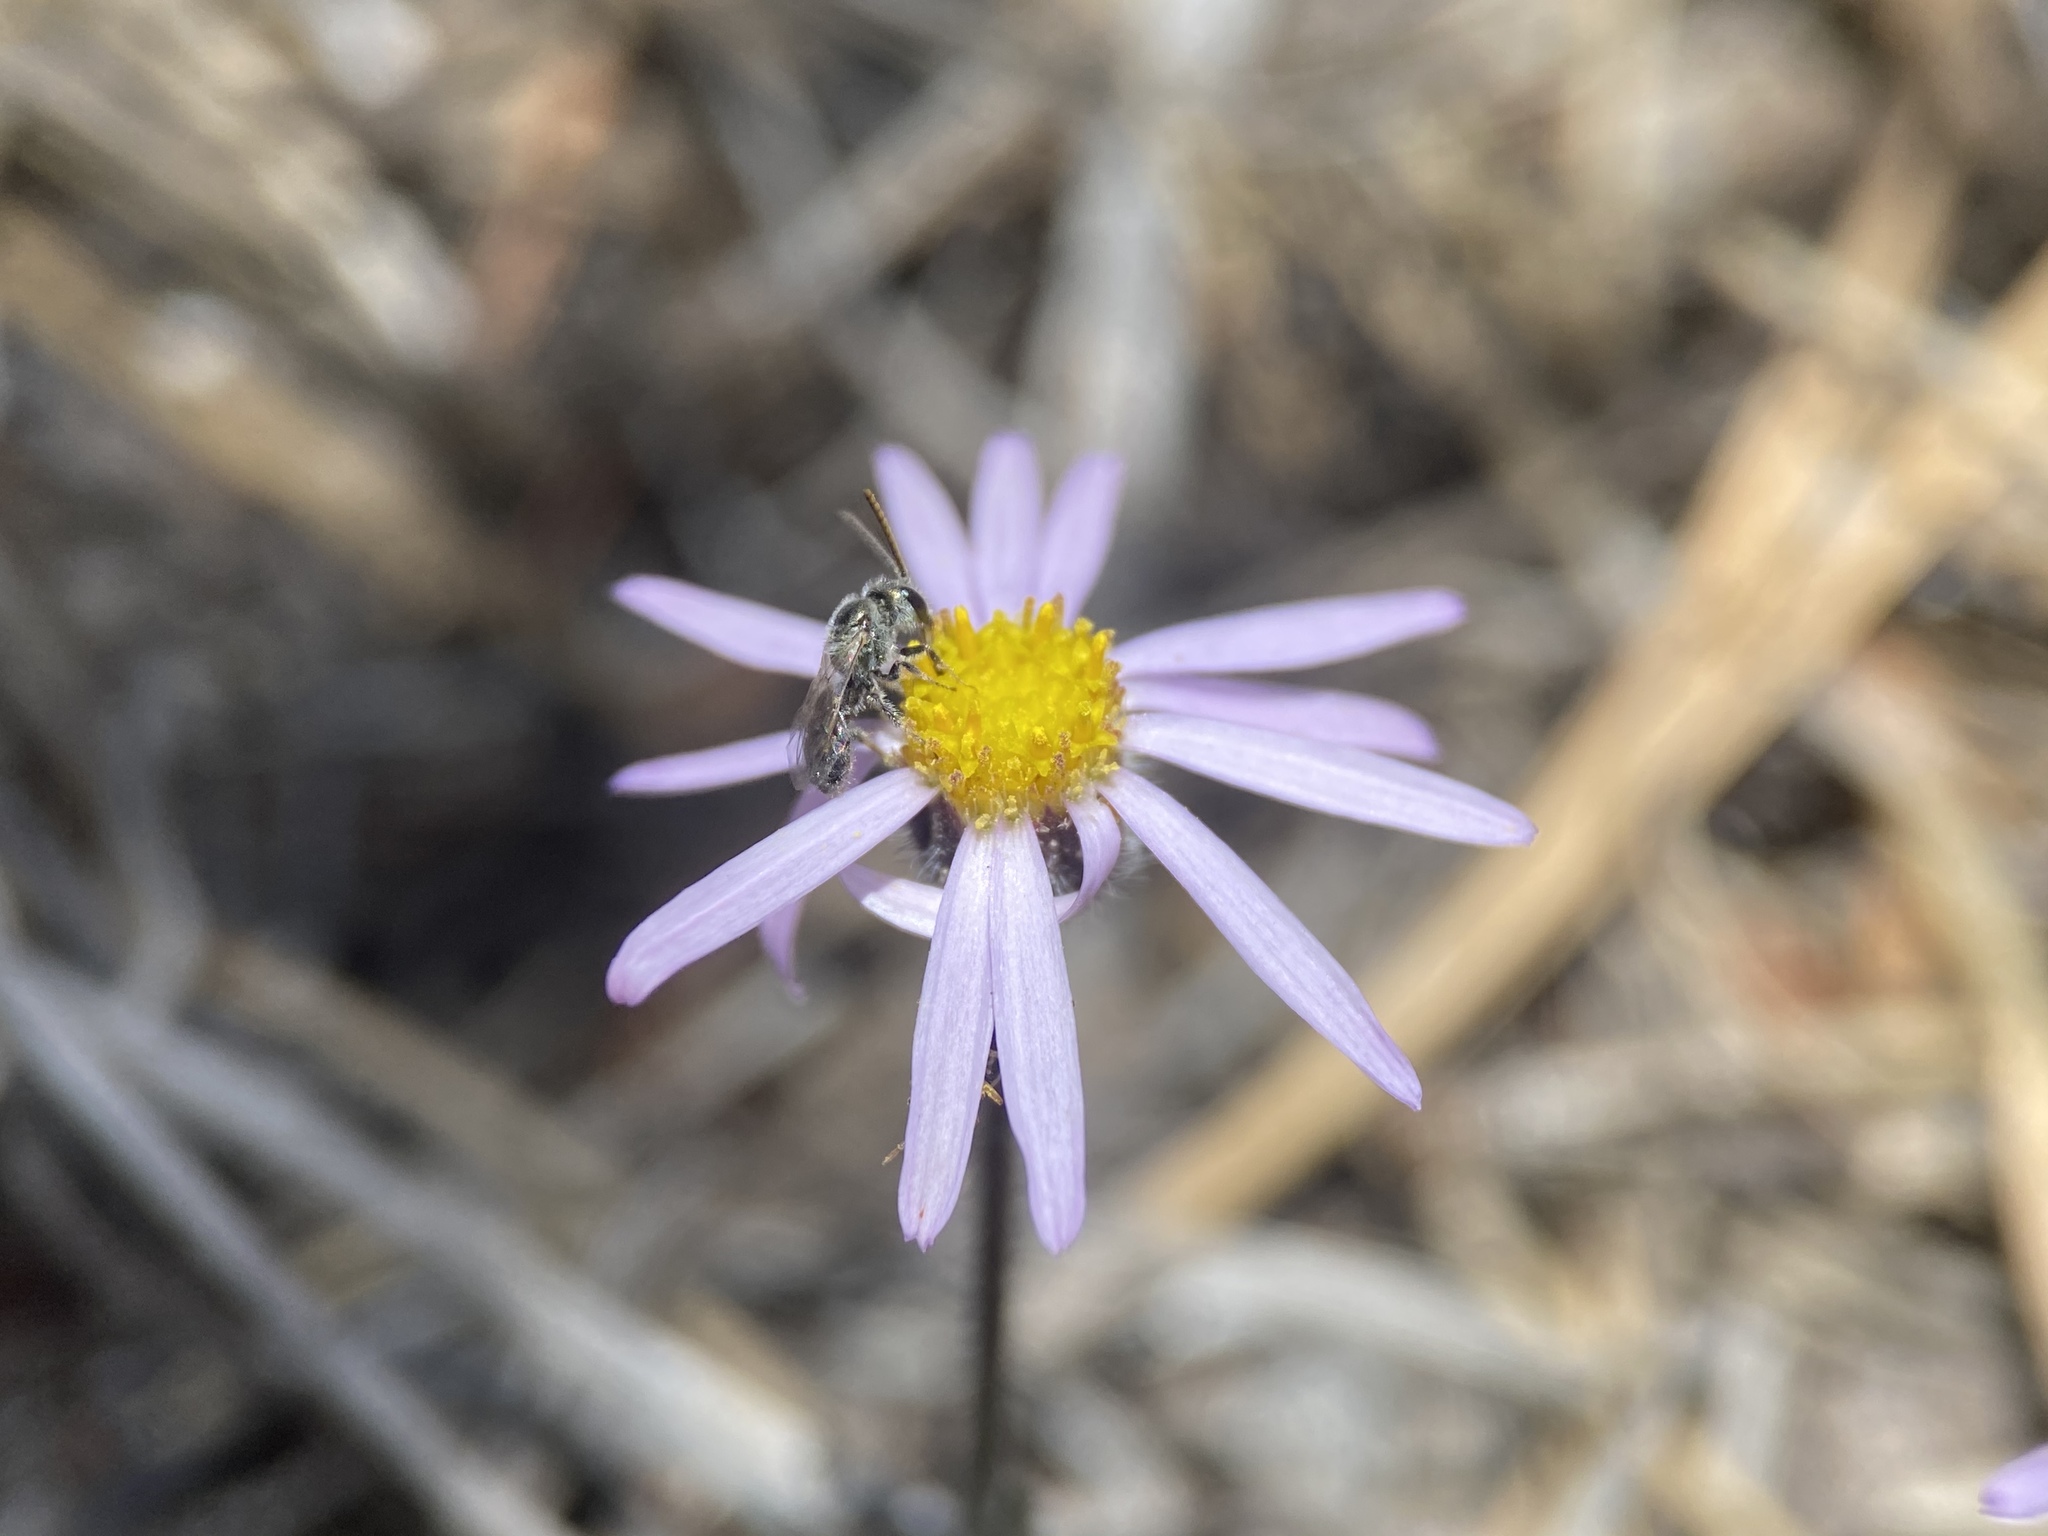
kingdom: Plantae
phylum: Tracheophyta
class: Magnoliopsida
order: Asterales
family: Asteraceae
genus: Erigeron
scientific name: Erigeron clokeyi
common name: Clokey's fleabane
